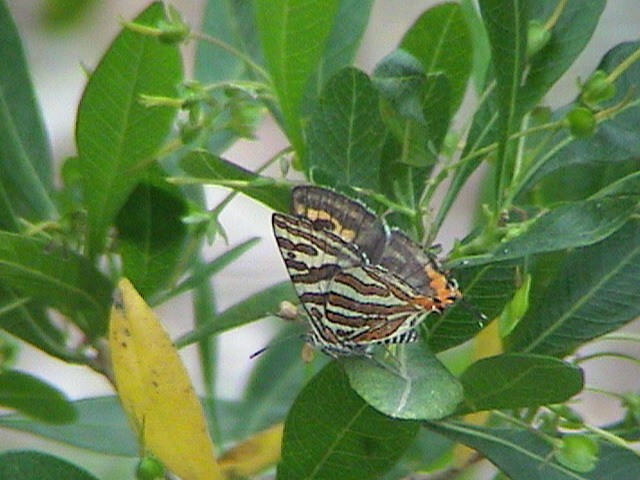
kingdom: Animalia
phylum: Arthropoda
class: Insecta
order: Lepidoptera
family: Lycaenidae
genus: Cigaritis
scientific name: Cigaritis vulcanus
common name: Common silverline
